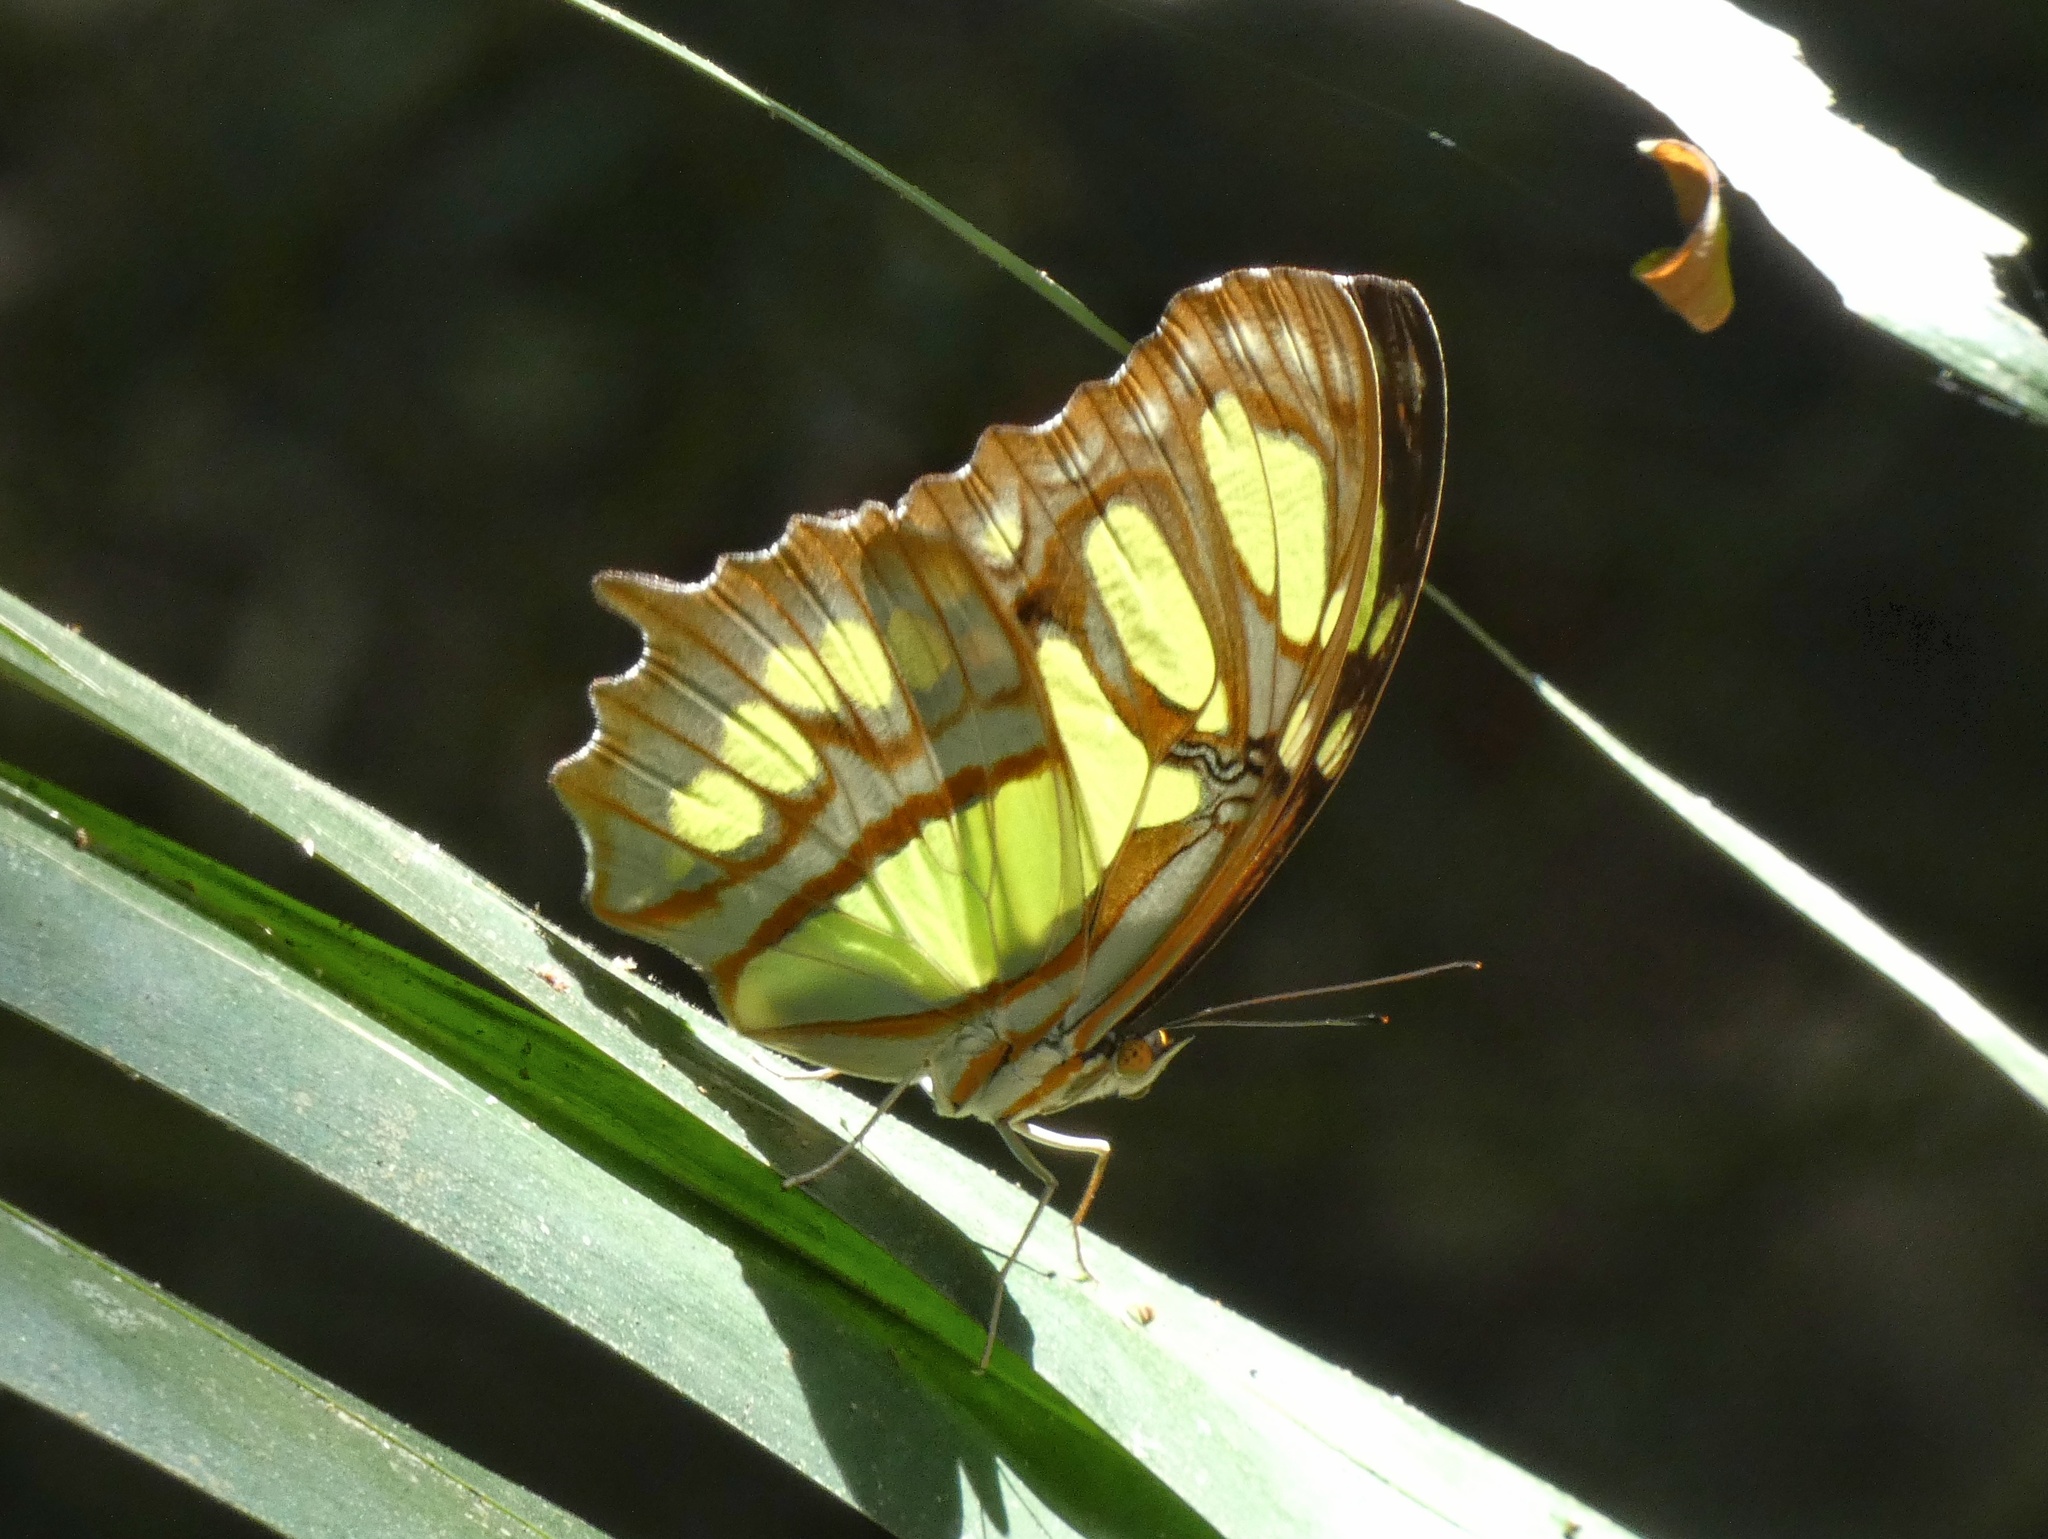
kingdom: Animalia
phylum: Arthropoda
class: Insecta
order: Lepidoptera
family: Nymphalidae
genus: Siproeta
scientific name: Siproeta stelenes
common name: Malachite
